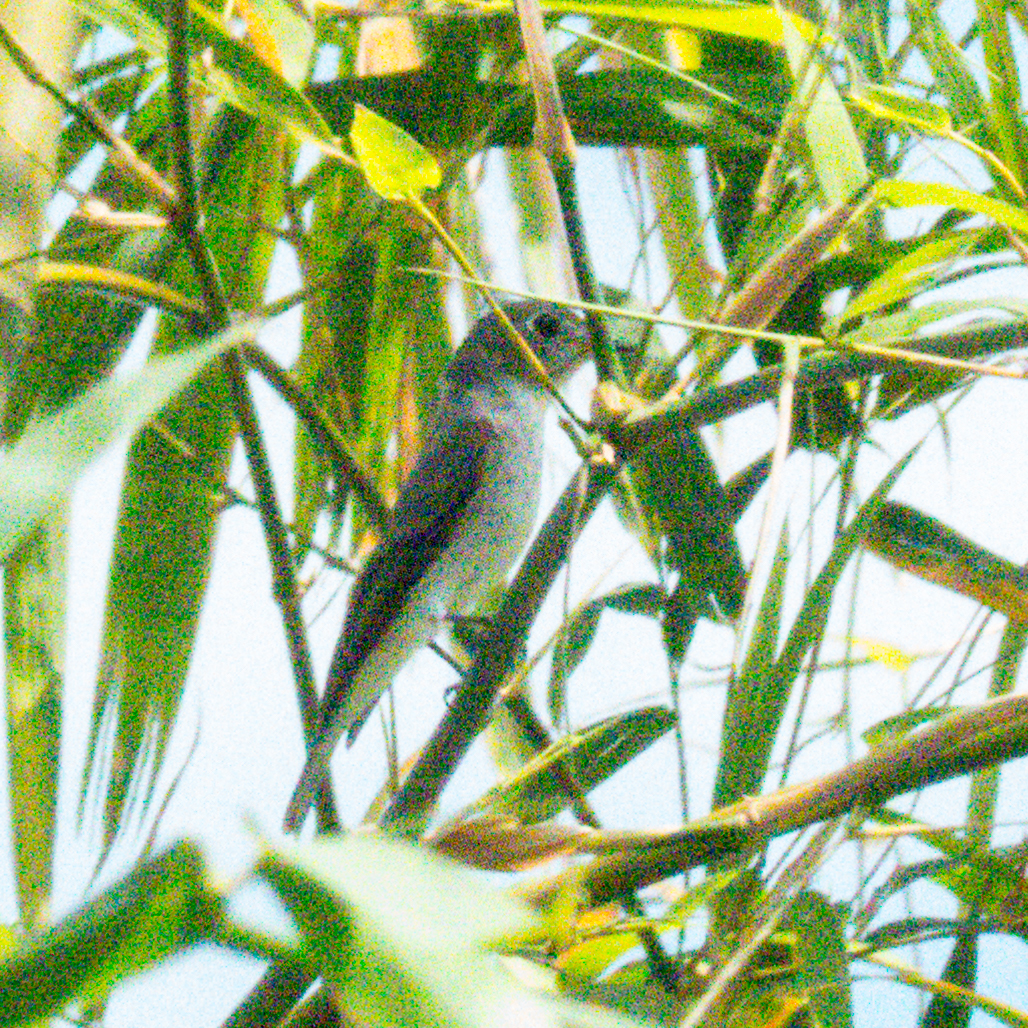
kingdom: Animalia
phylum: Chordata
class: Aves
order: Passeriformes
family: Muscicapidae
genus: Muscicapa
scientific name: Muscicapa latirostris
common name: Asian brown flycatcher
